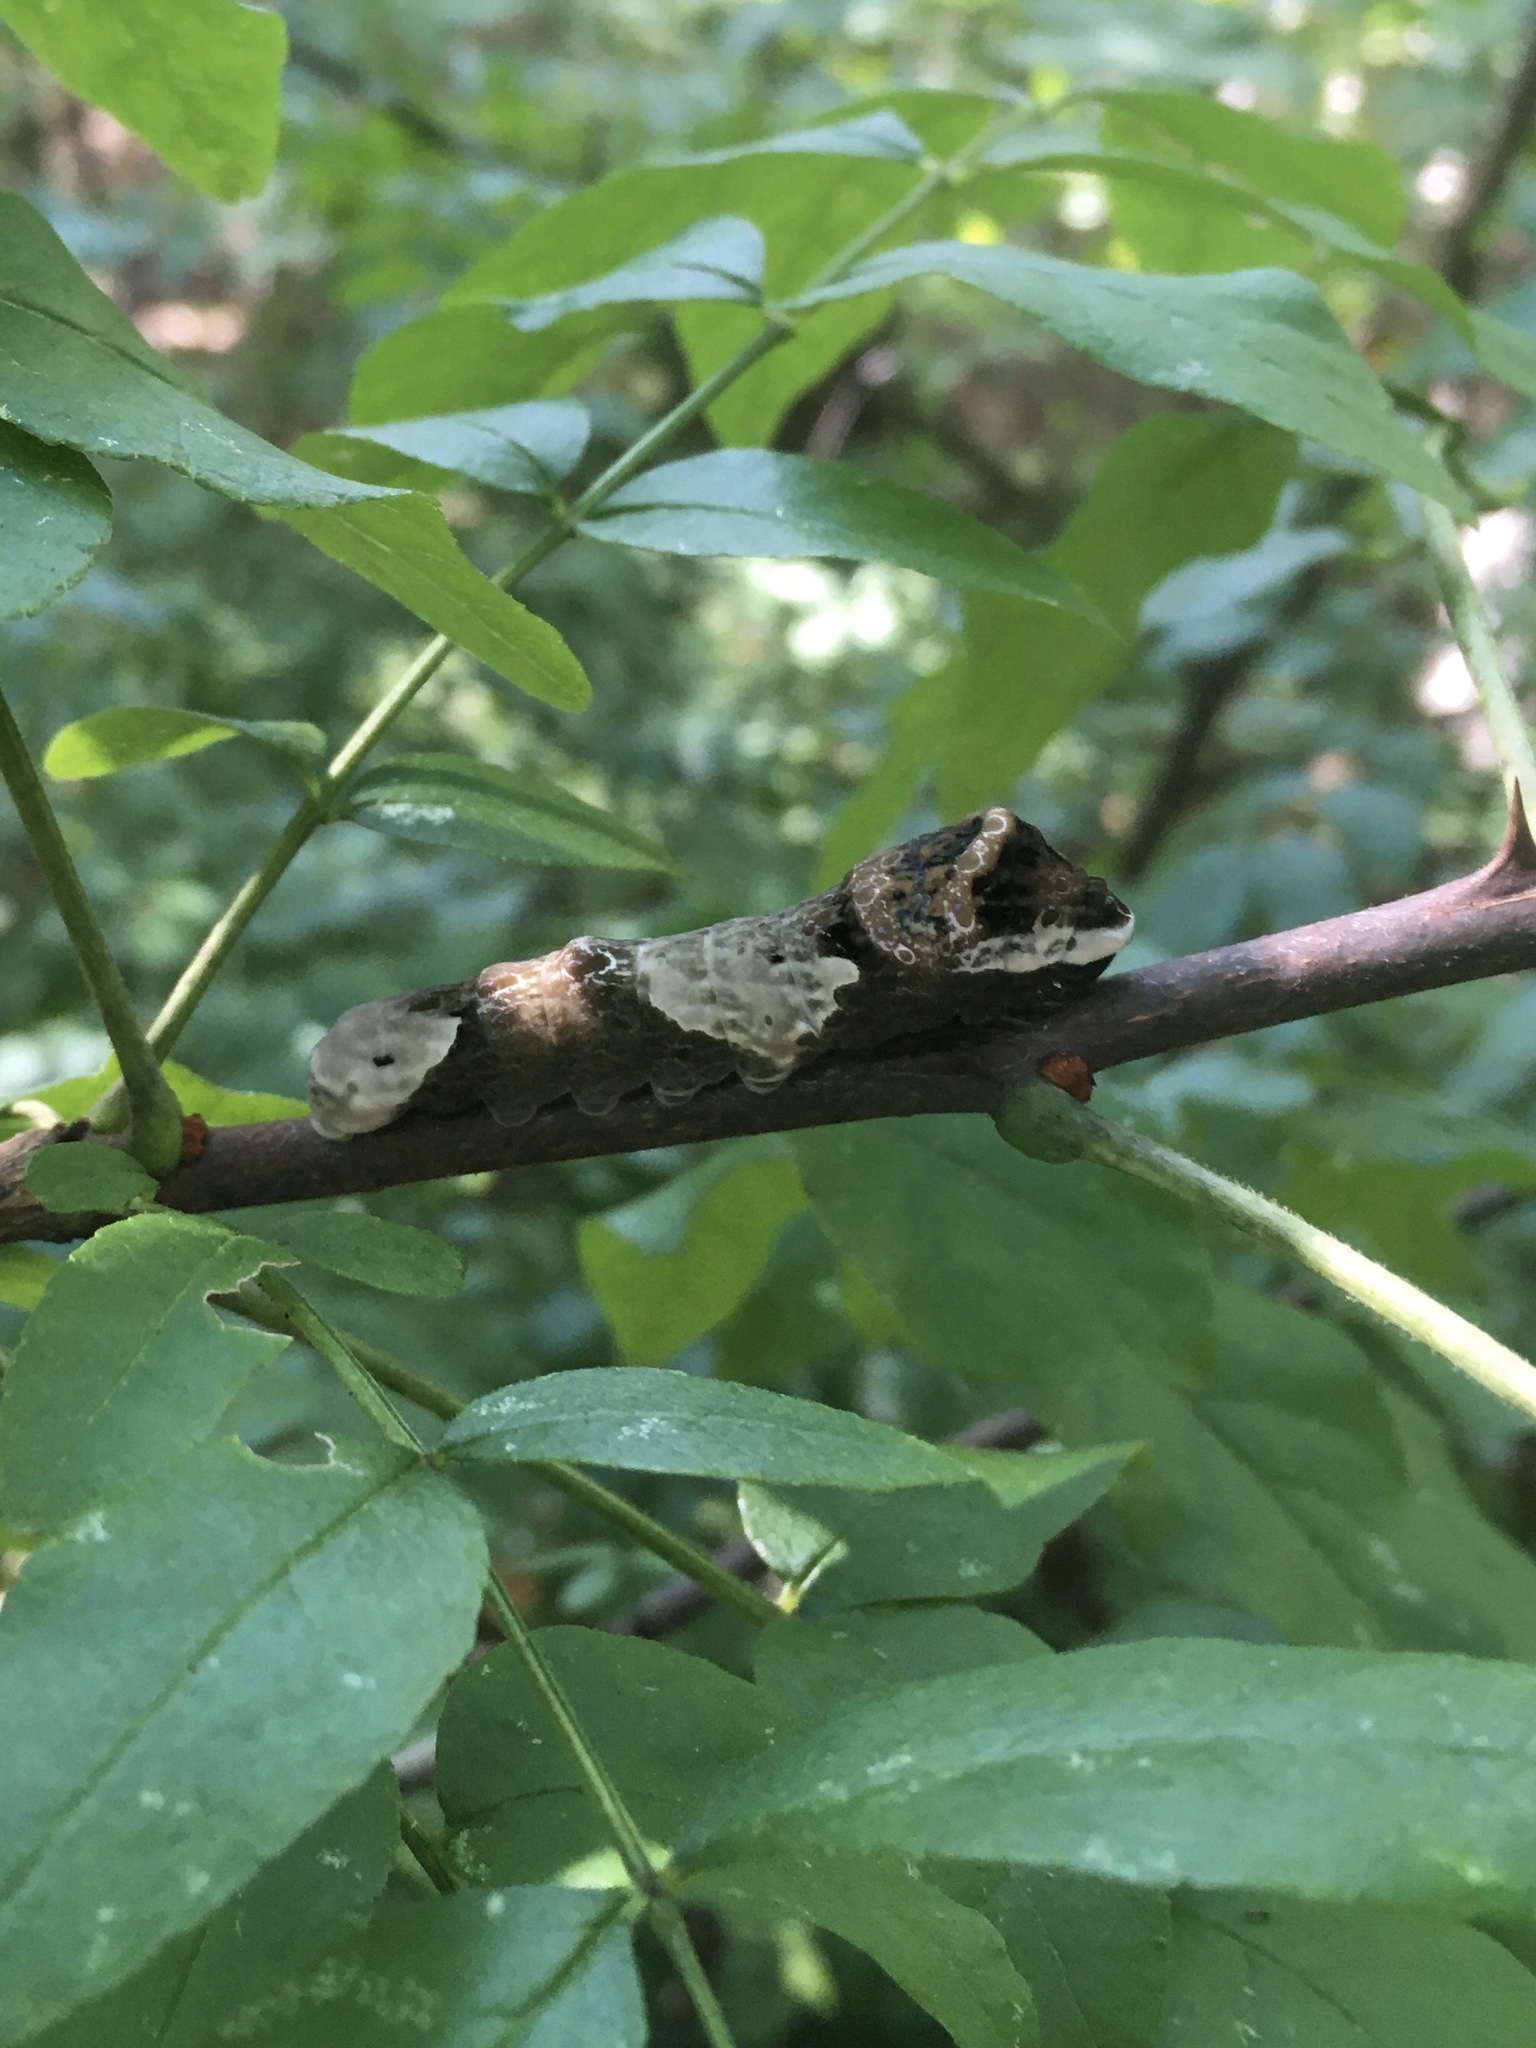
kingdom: Animalia
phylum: Arthropoda
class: Insecta
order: Lepidoptera
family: Papilionidae
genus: Papilio
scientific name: Papilio cresphontes
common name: Giant swallowtail
